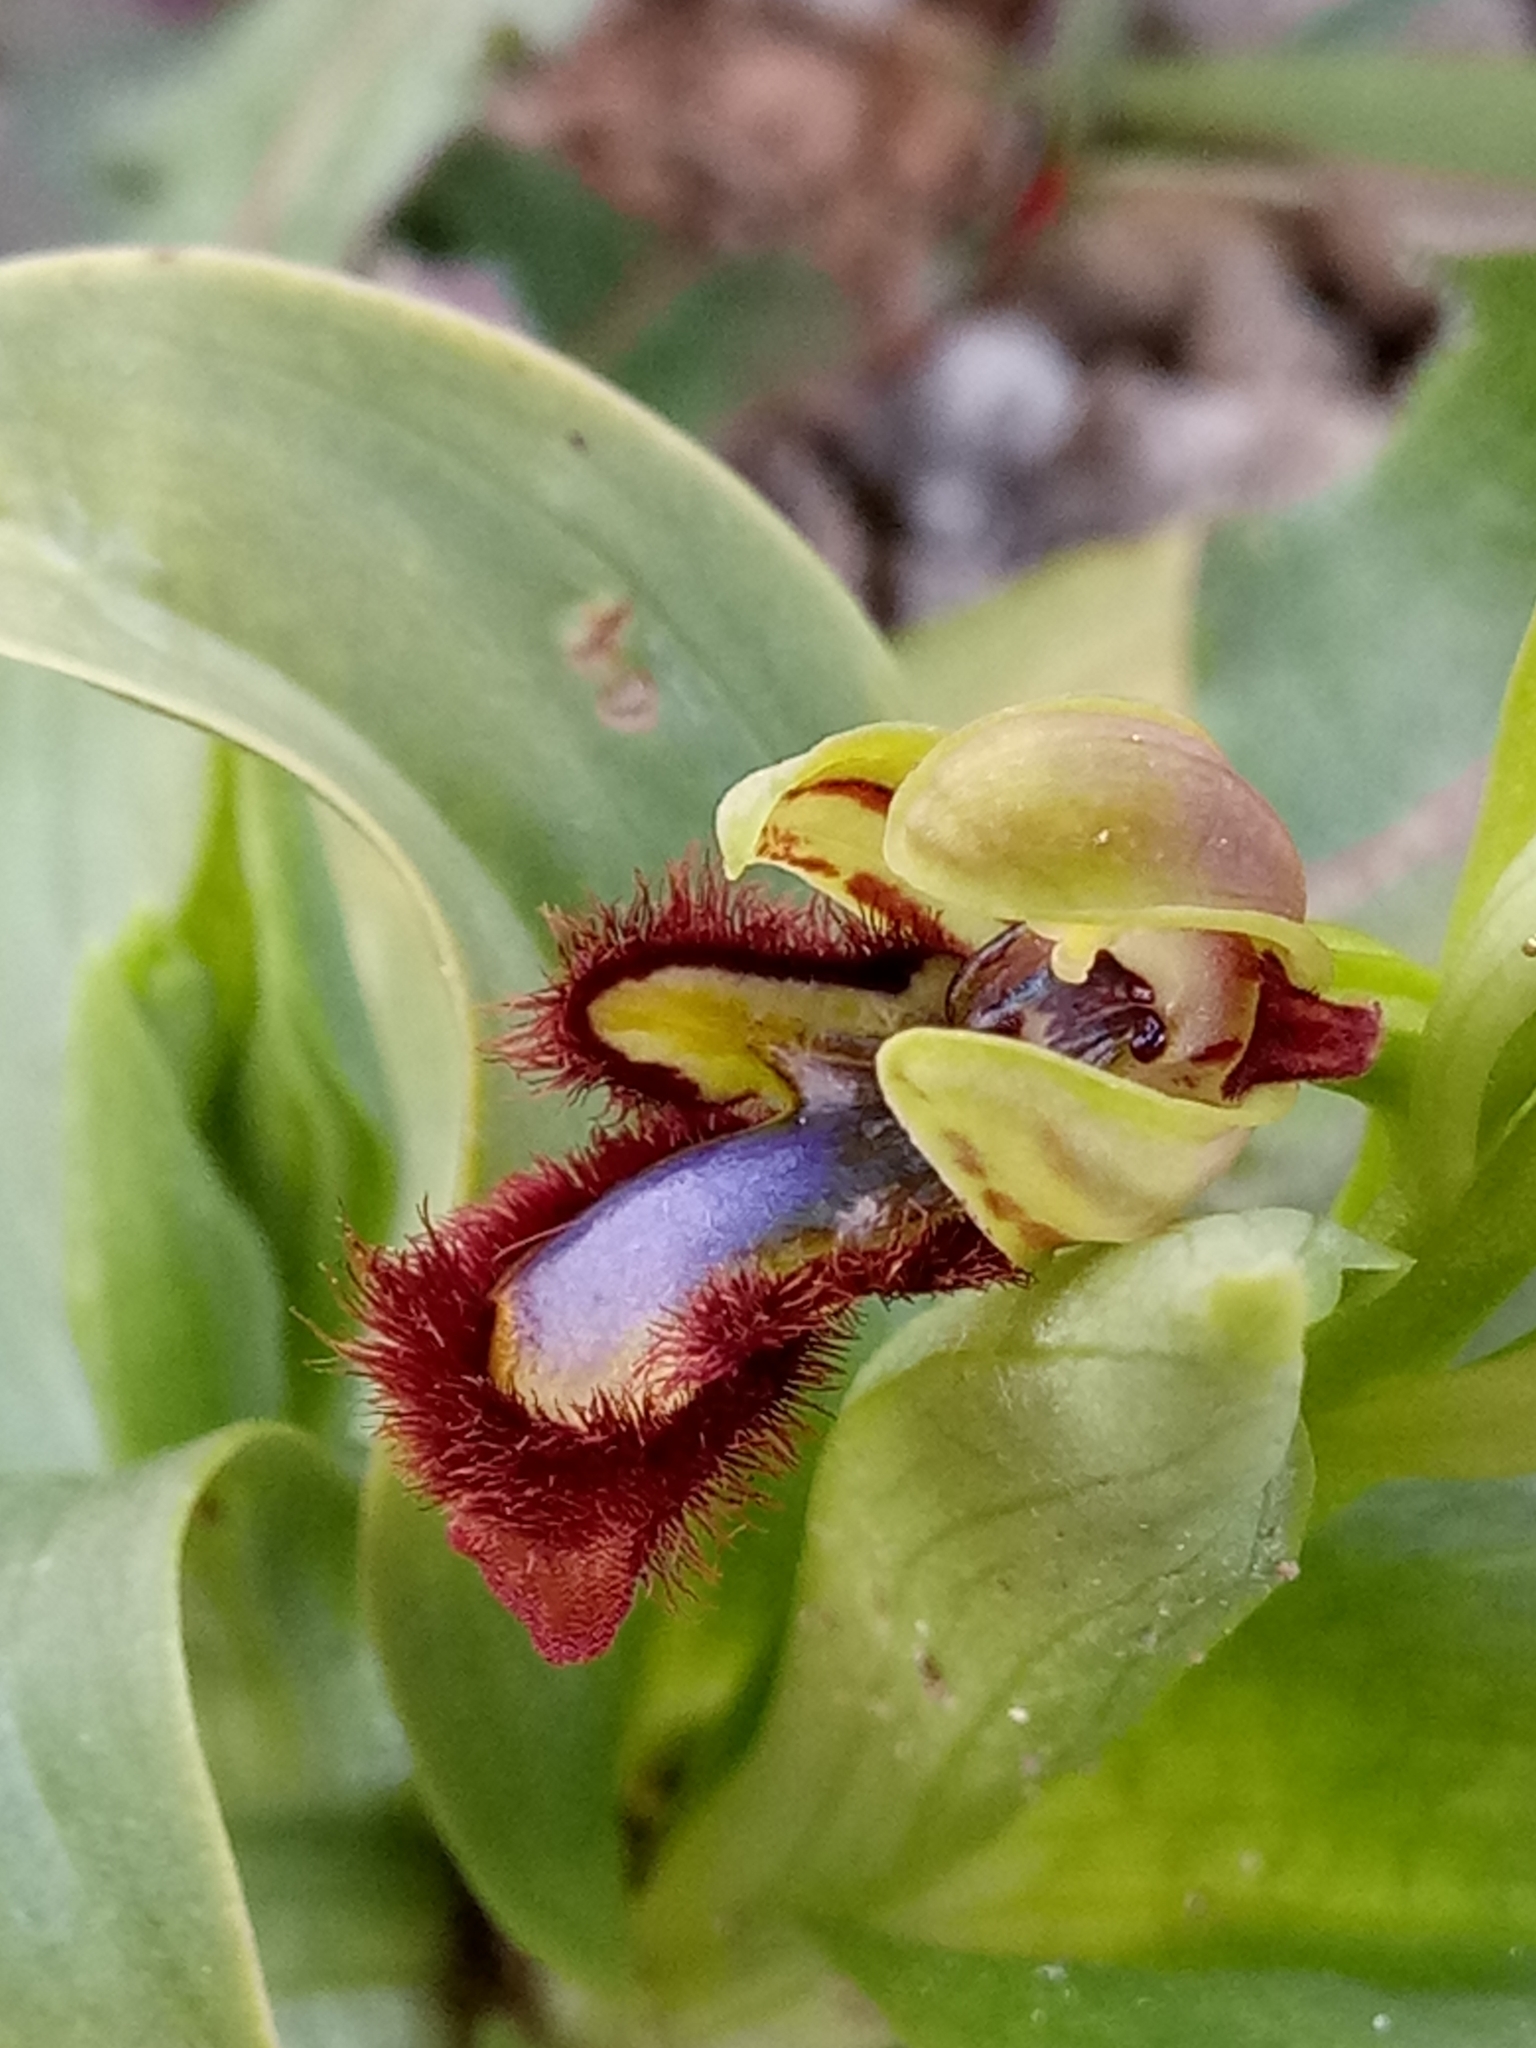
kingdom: Plantae
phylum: Tracheophyta
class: Liliopsida
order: Asparagales
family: Orchidaceae
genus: Ophrys
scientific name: Ophrys speculum
